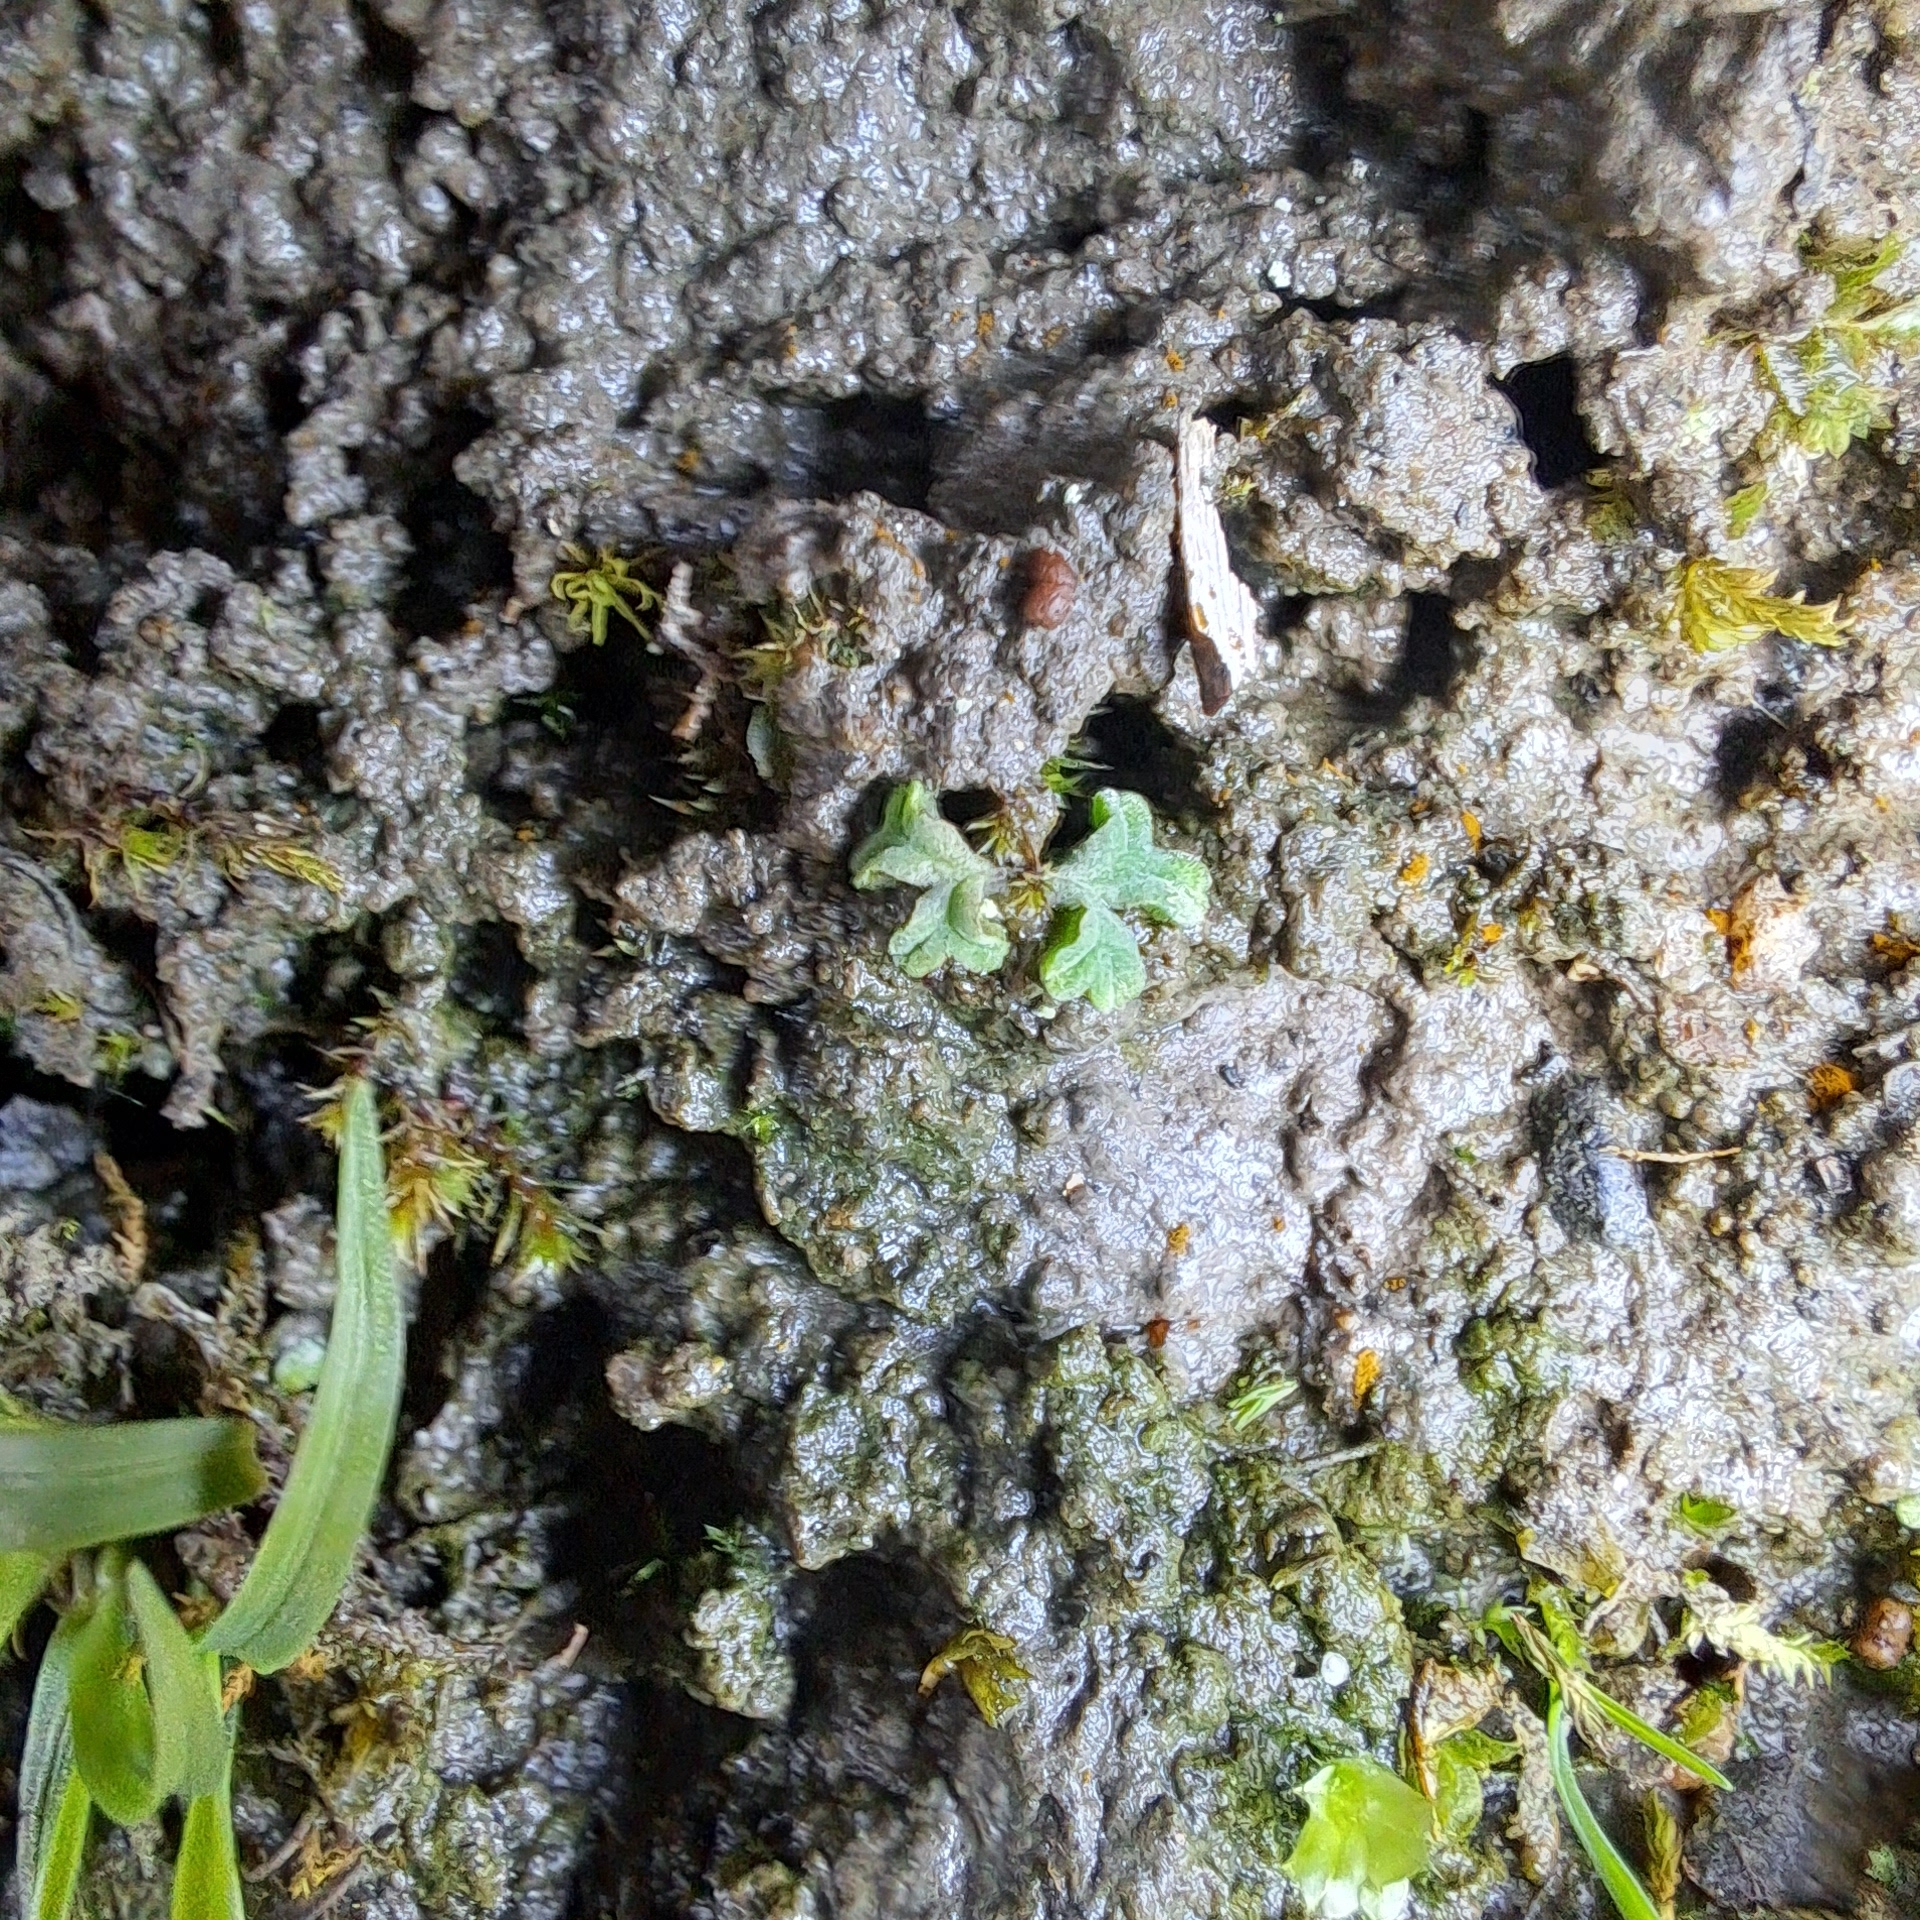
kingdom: Plantae
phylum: Marchantiophyta
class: Marchantiopsida
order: Marchantiales
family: Ricciaceae
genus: Riccia
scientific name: Riccia sorocarpa
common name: Common crystalwort
